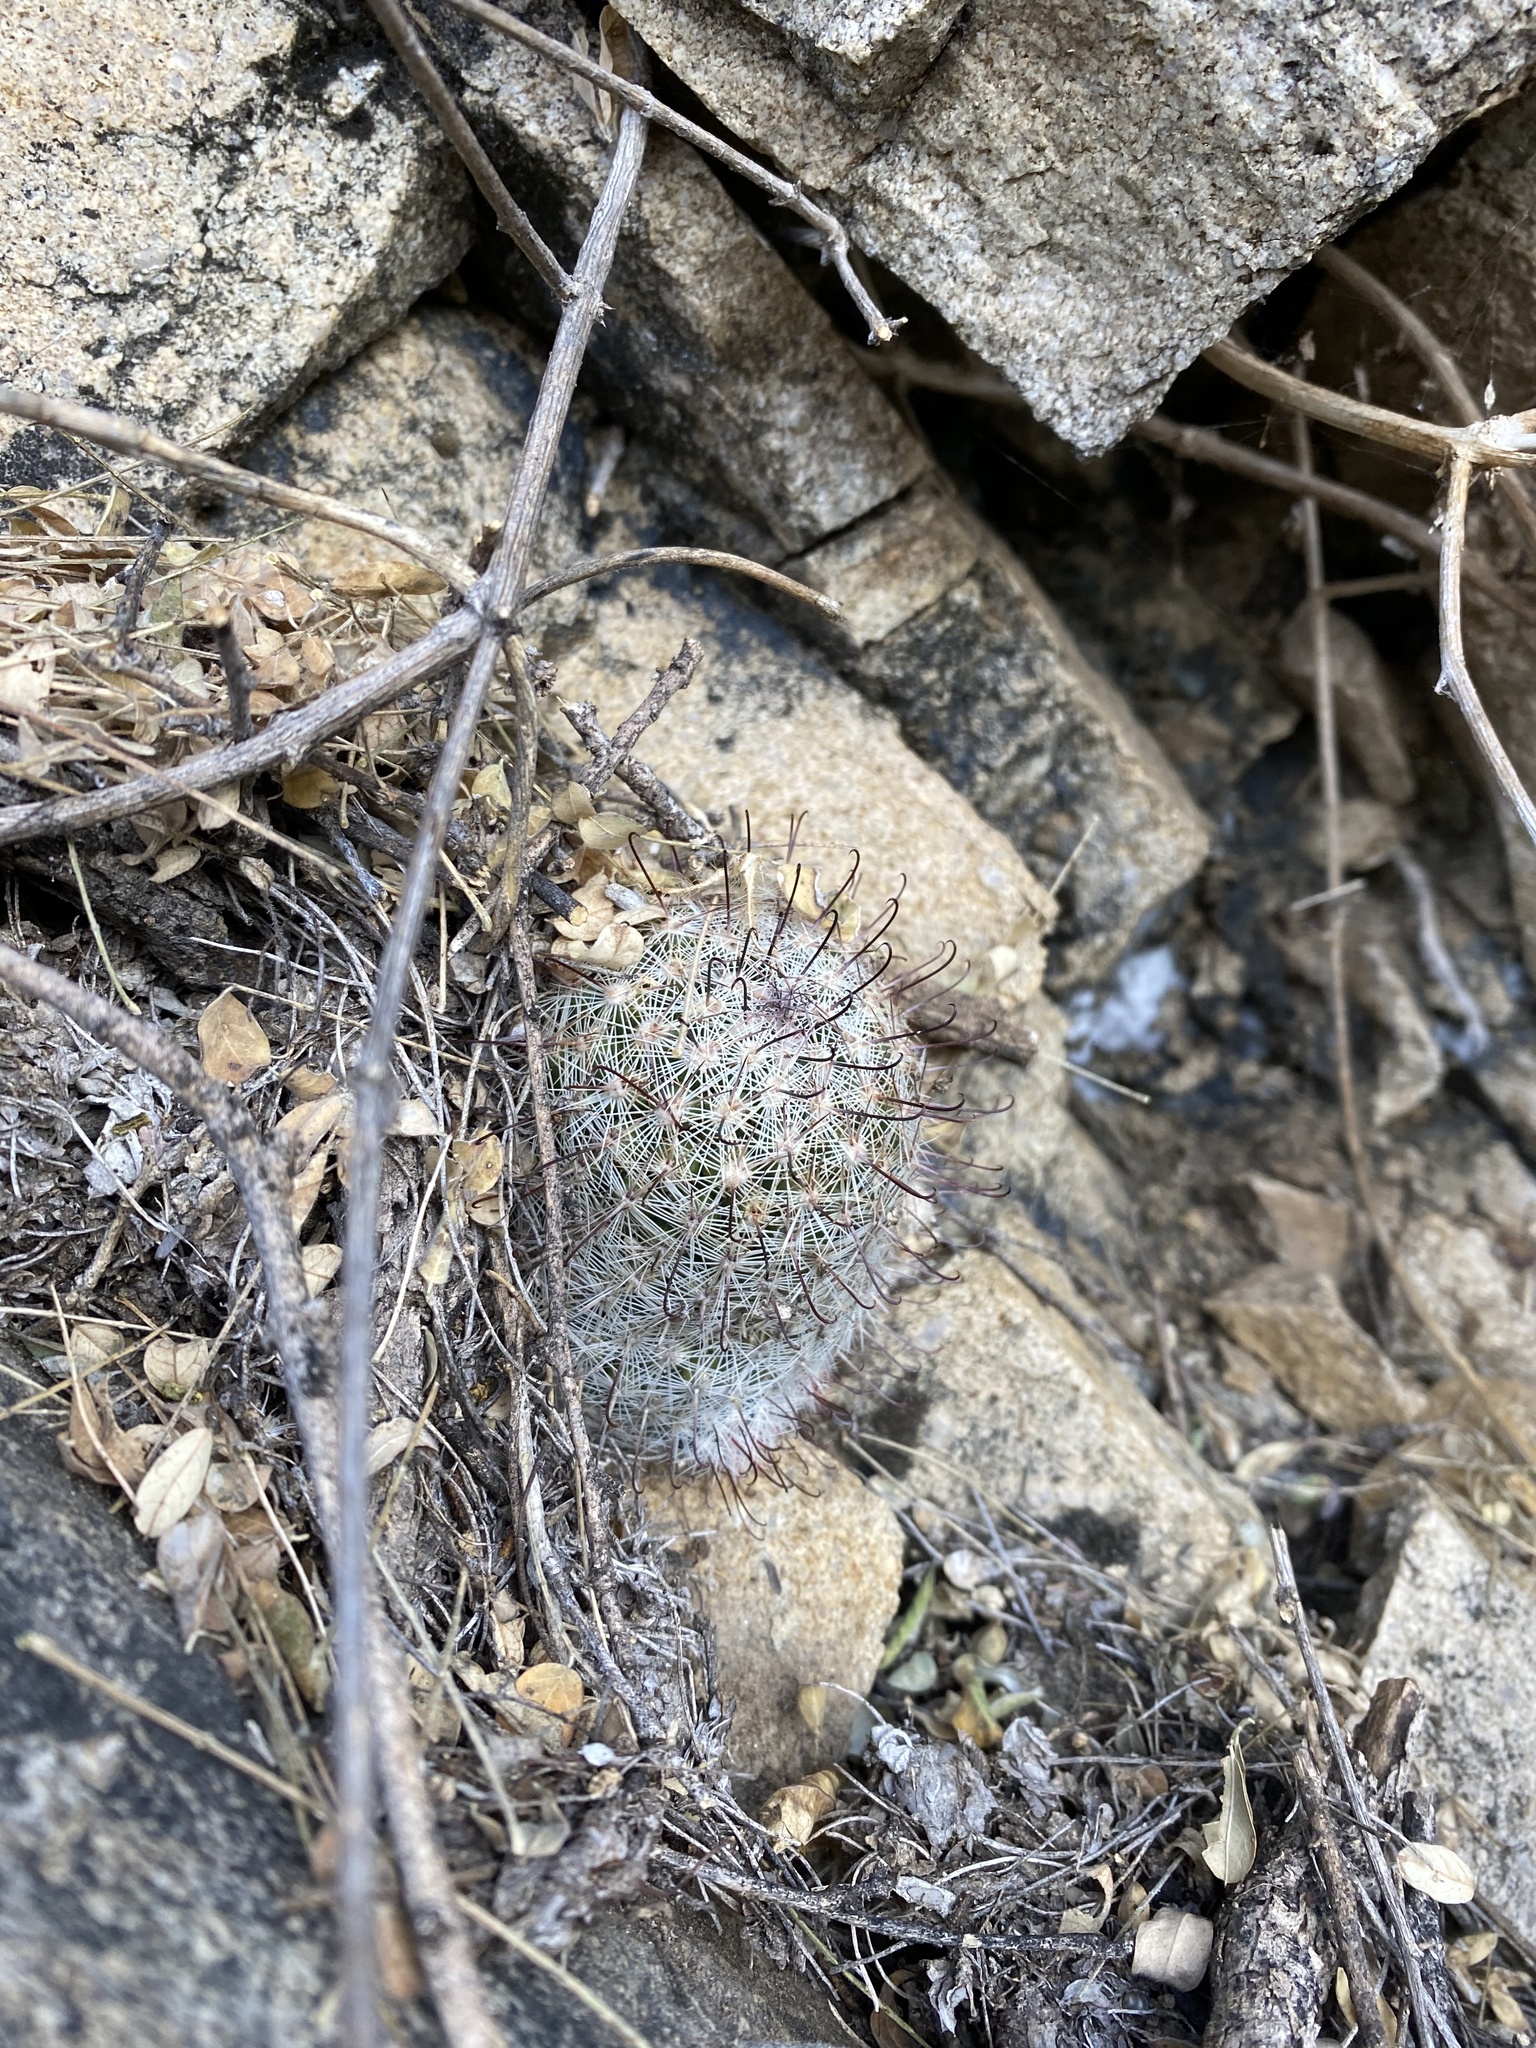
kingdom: Plantae
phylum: Tracheophyta
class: Magnoliopsida
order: Caryophyllales
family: Cactaceae
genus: Cochemiea
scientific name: Cochemiea grahamii
